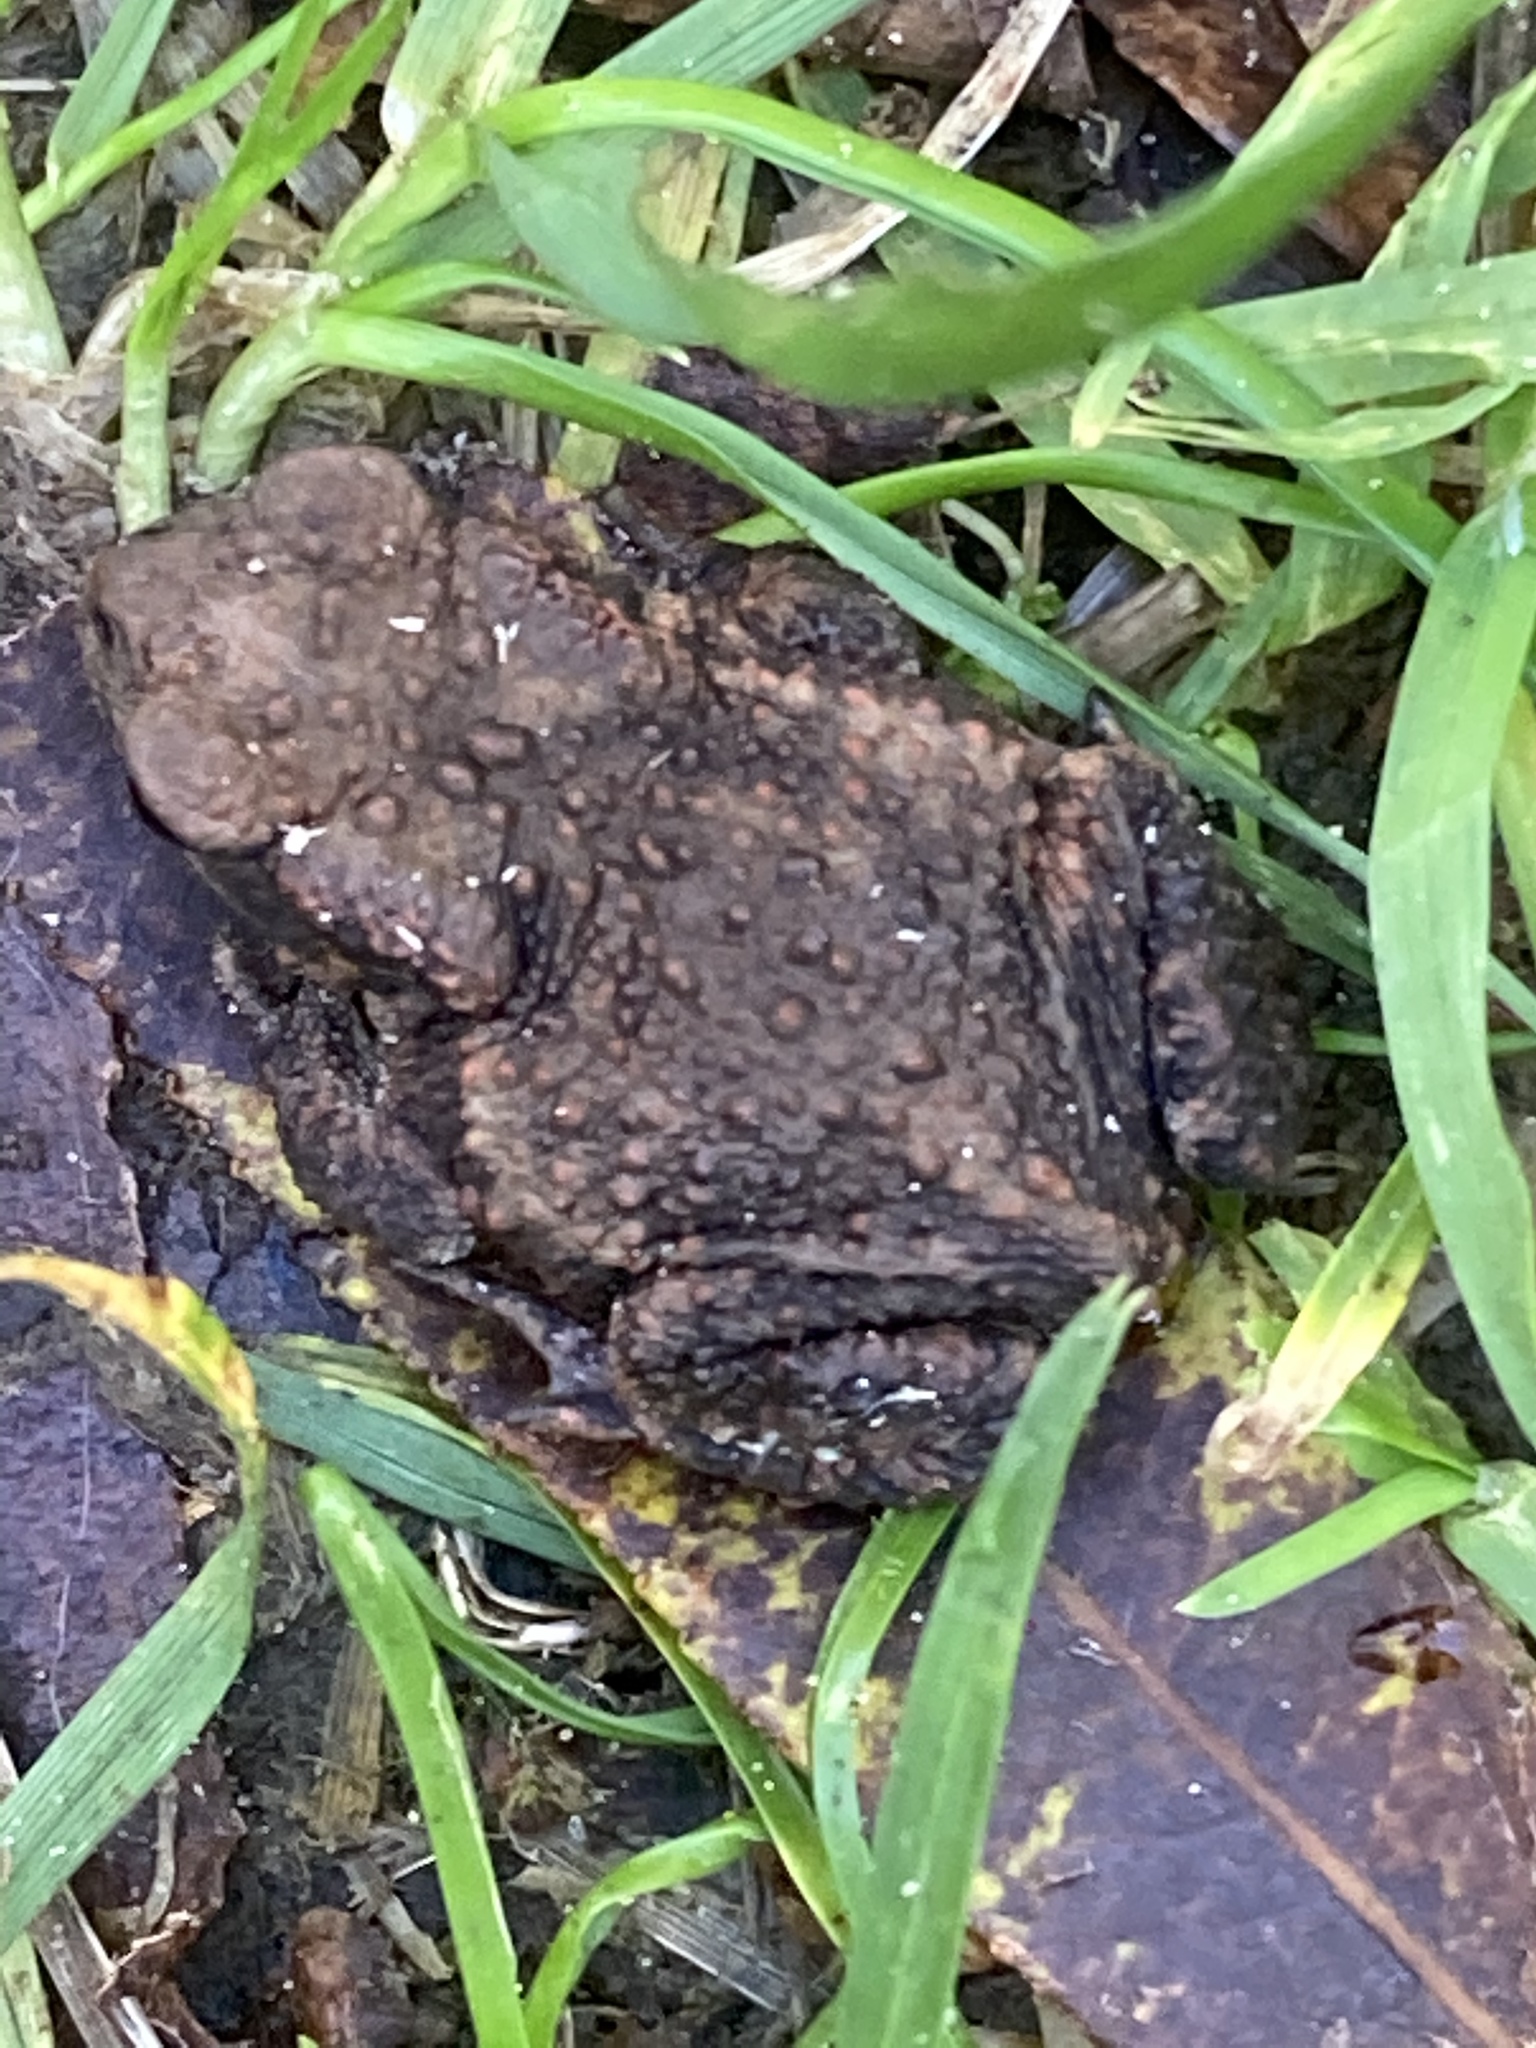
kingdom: Animalia
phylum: Chordata
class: Amphibia
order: Anura
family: Bufonidae
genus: Bufo
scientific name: Bufo bufo
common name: Common toad
